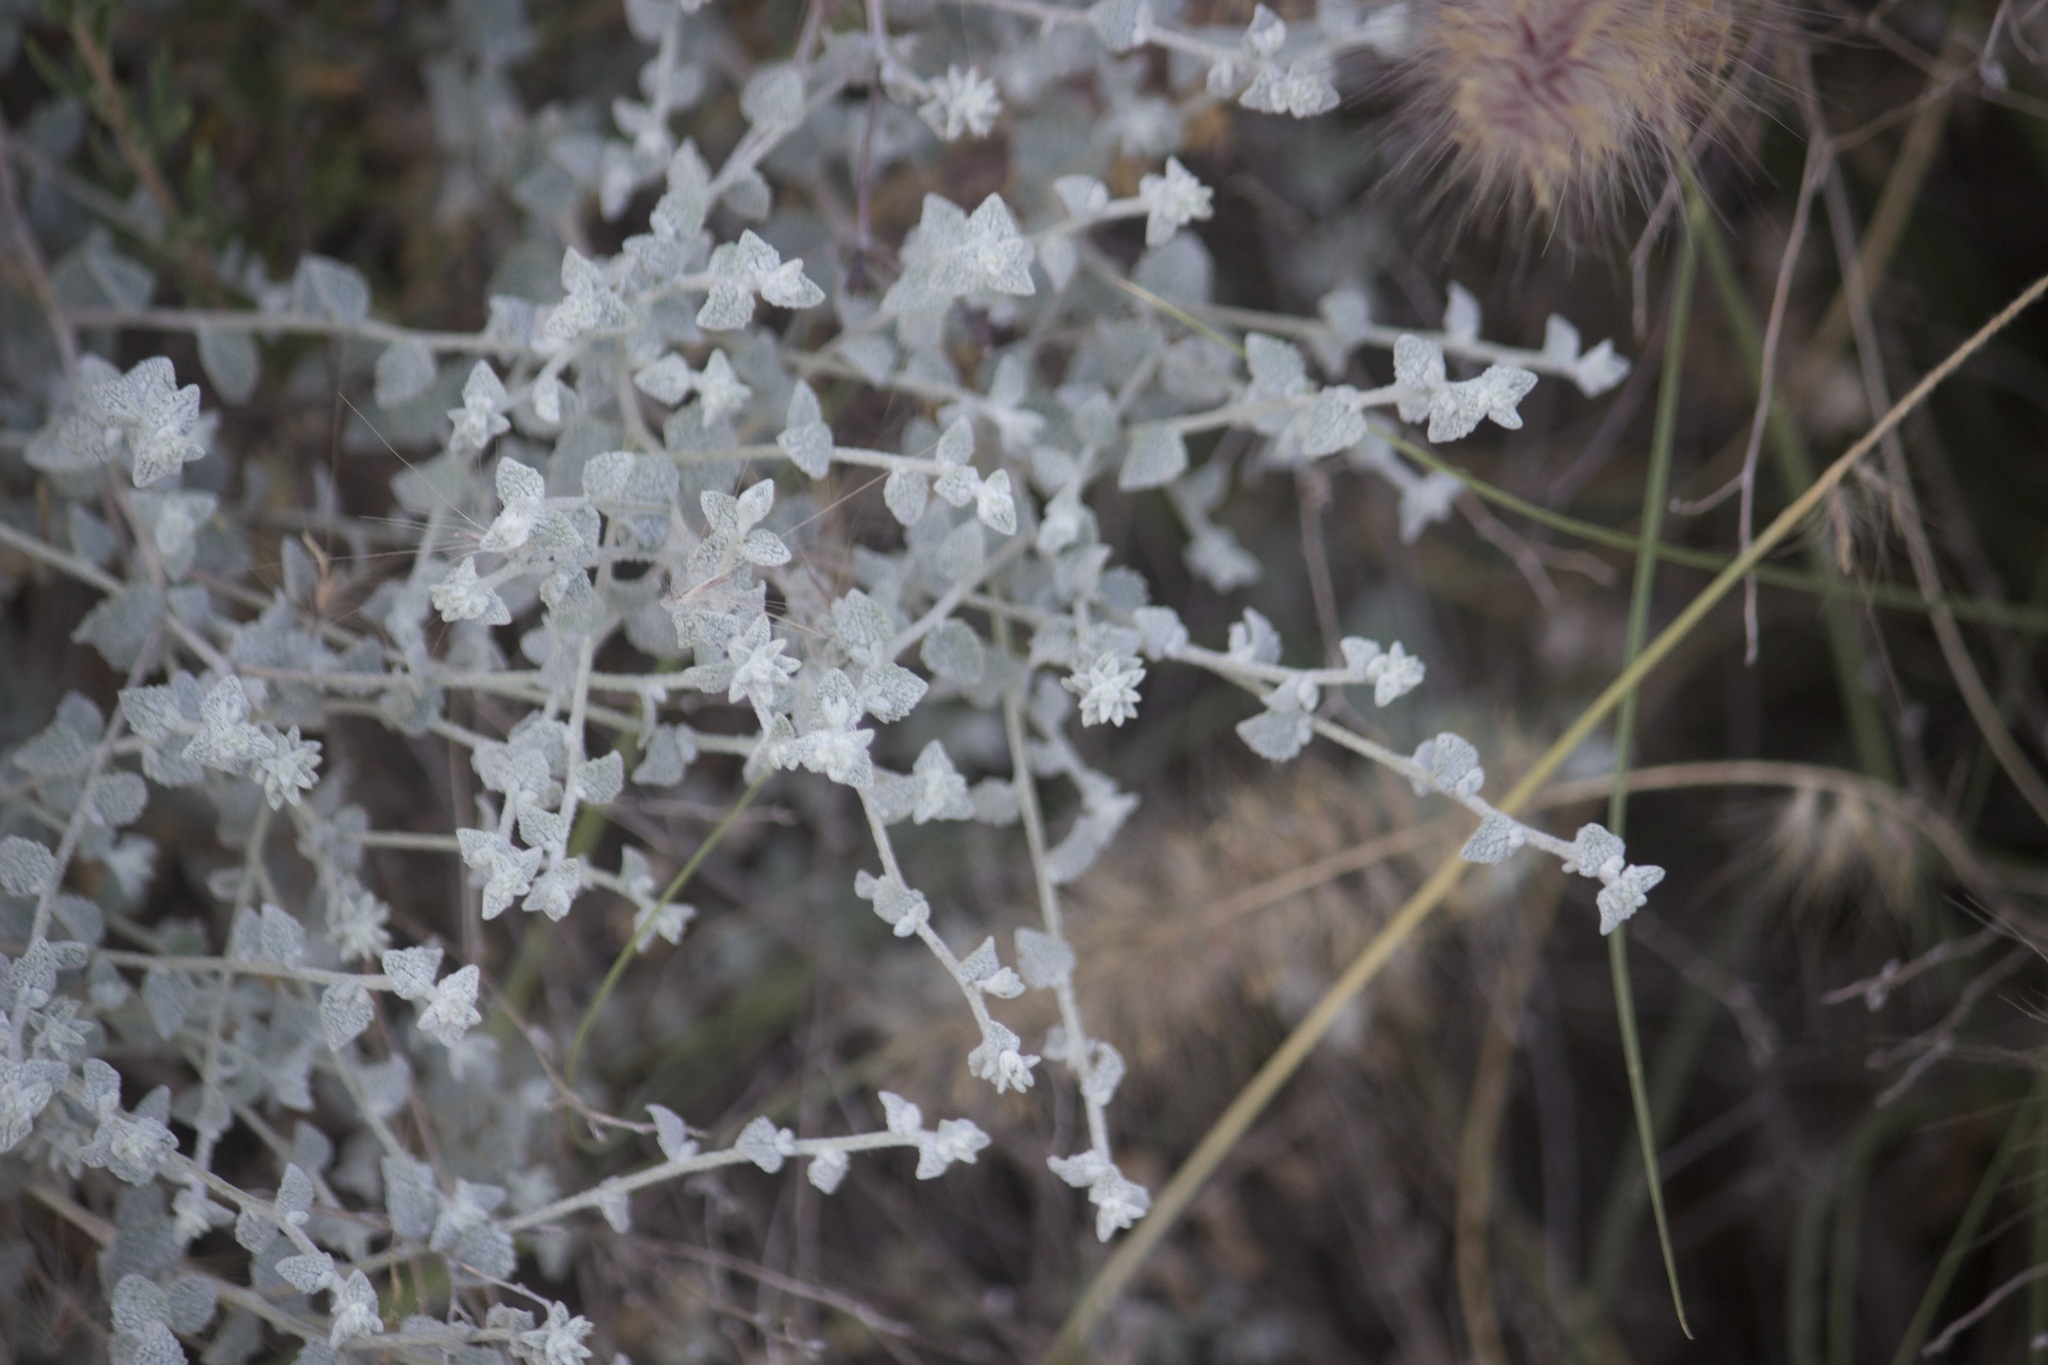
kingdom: Plantae
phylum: Tracheophyta
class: Magnoliopsida
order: Asterales
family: Asteraceae
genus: Brickellia
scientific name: Brickellia nevinii
